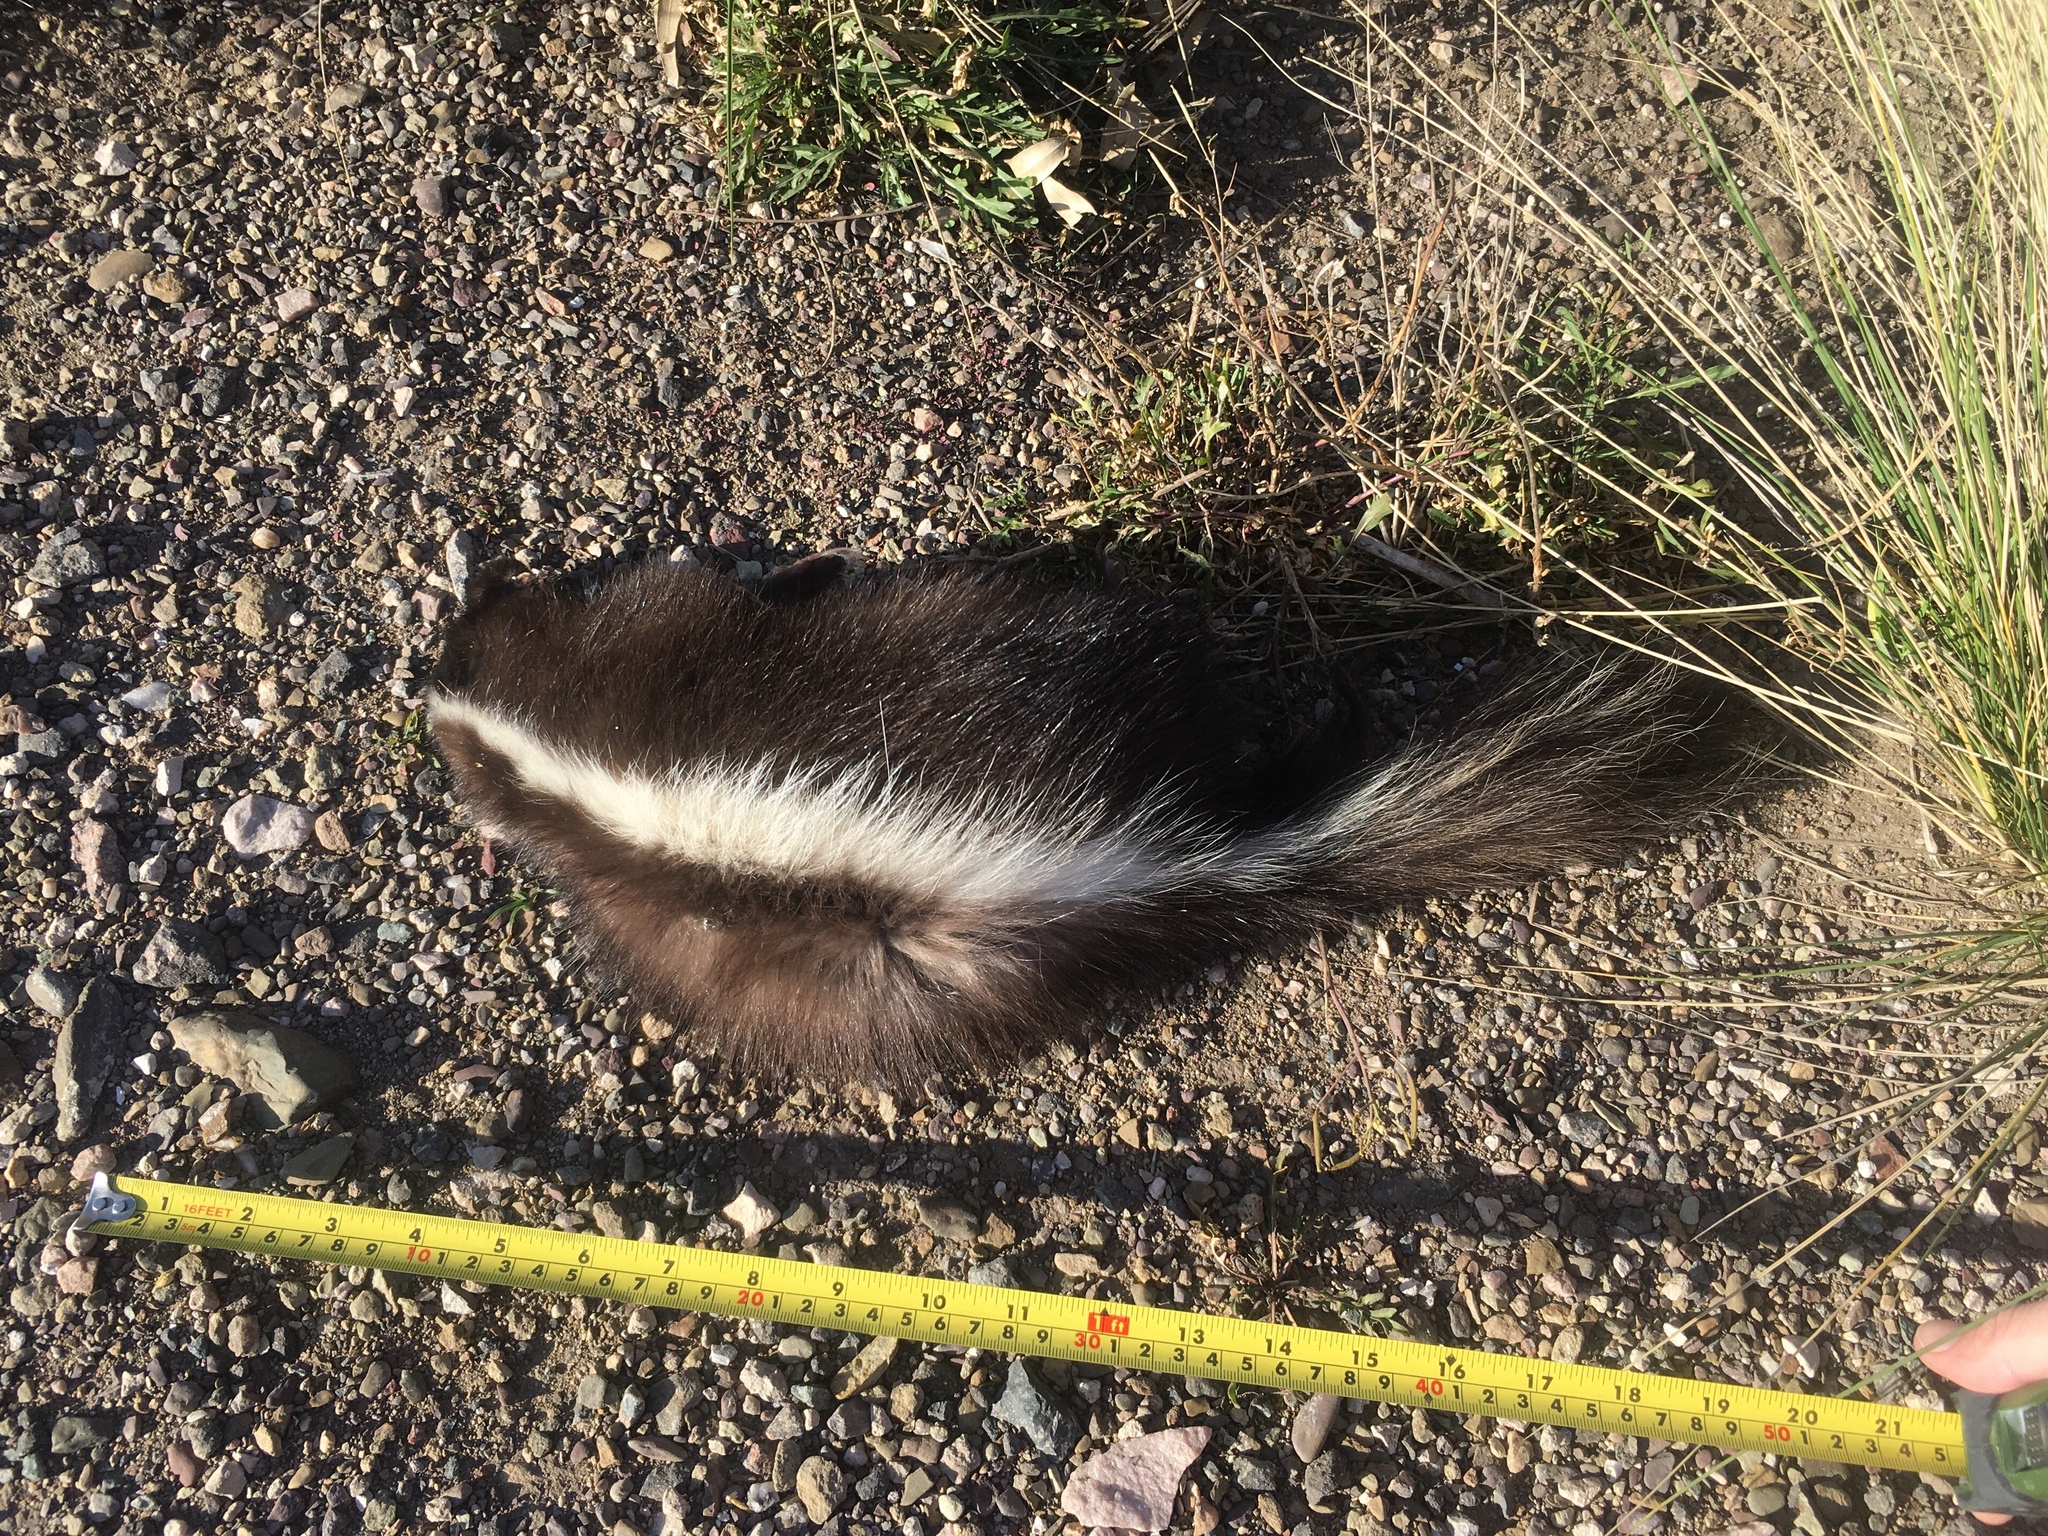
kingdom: Animalia
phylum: Chordata
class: Mammalia
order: Carnivora
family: Mephitidae
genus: Conepatus
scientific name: Conepatus chinga
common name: Molina's hog-nosed skunk
